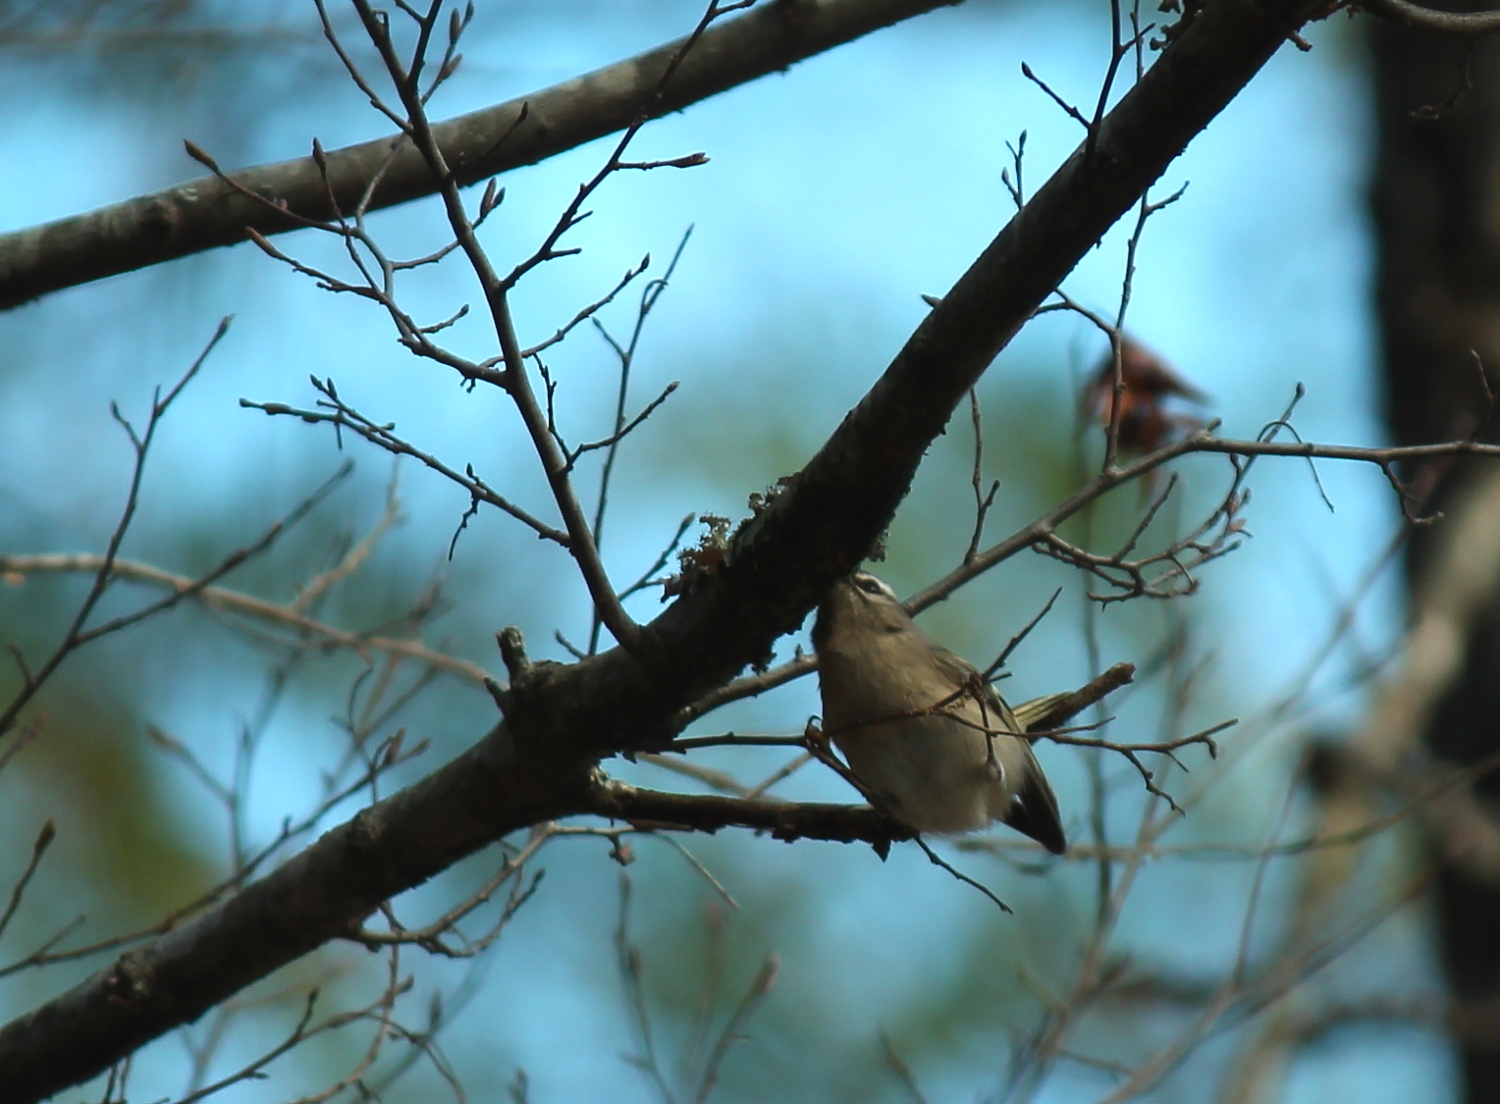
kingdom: Animalia
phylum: Chordata
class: Aves
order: Passeriformes
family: Regulidae
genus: Regulus
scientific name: Regulus satrapa
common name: Golden-crowned kinglet
